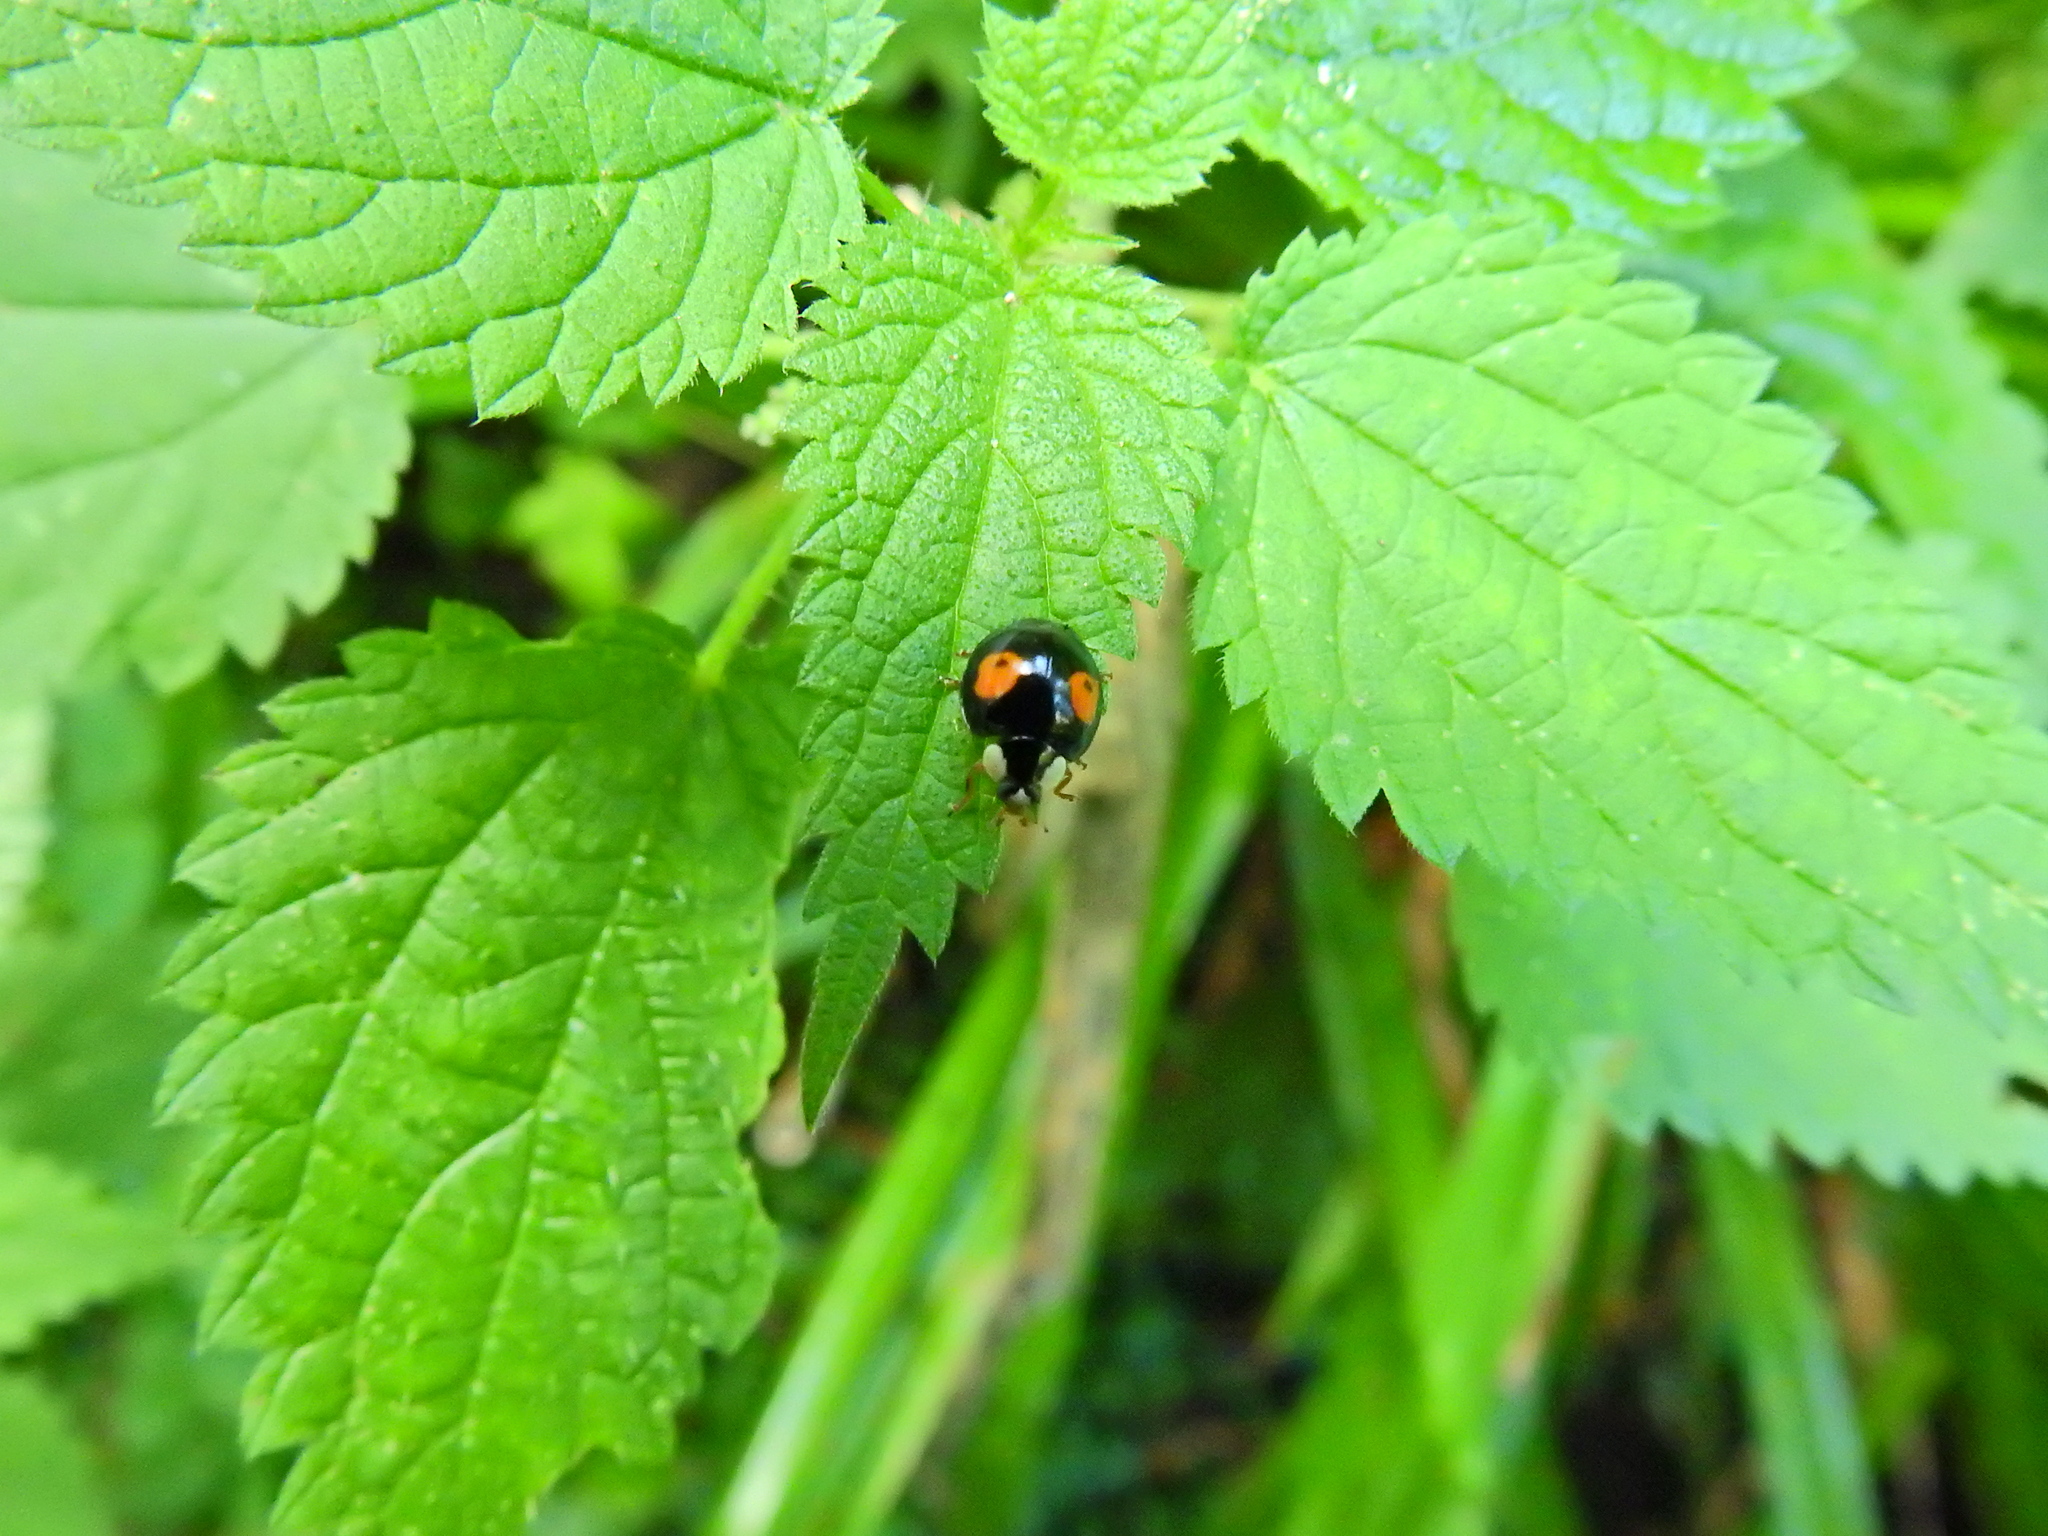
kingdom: Animalia
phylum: Arthropoda
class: Insecta
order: Coleoptera
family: Coccinellidae
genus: Harmonia
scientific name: Harmonia axyridis
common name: Harlequin ladybird
